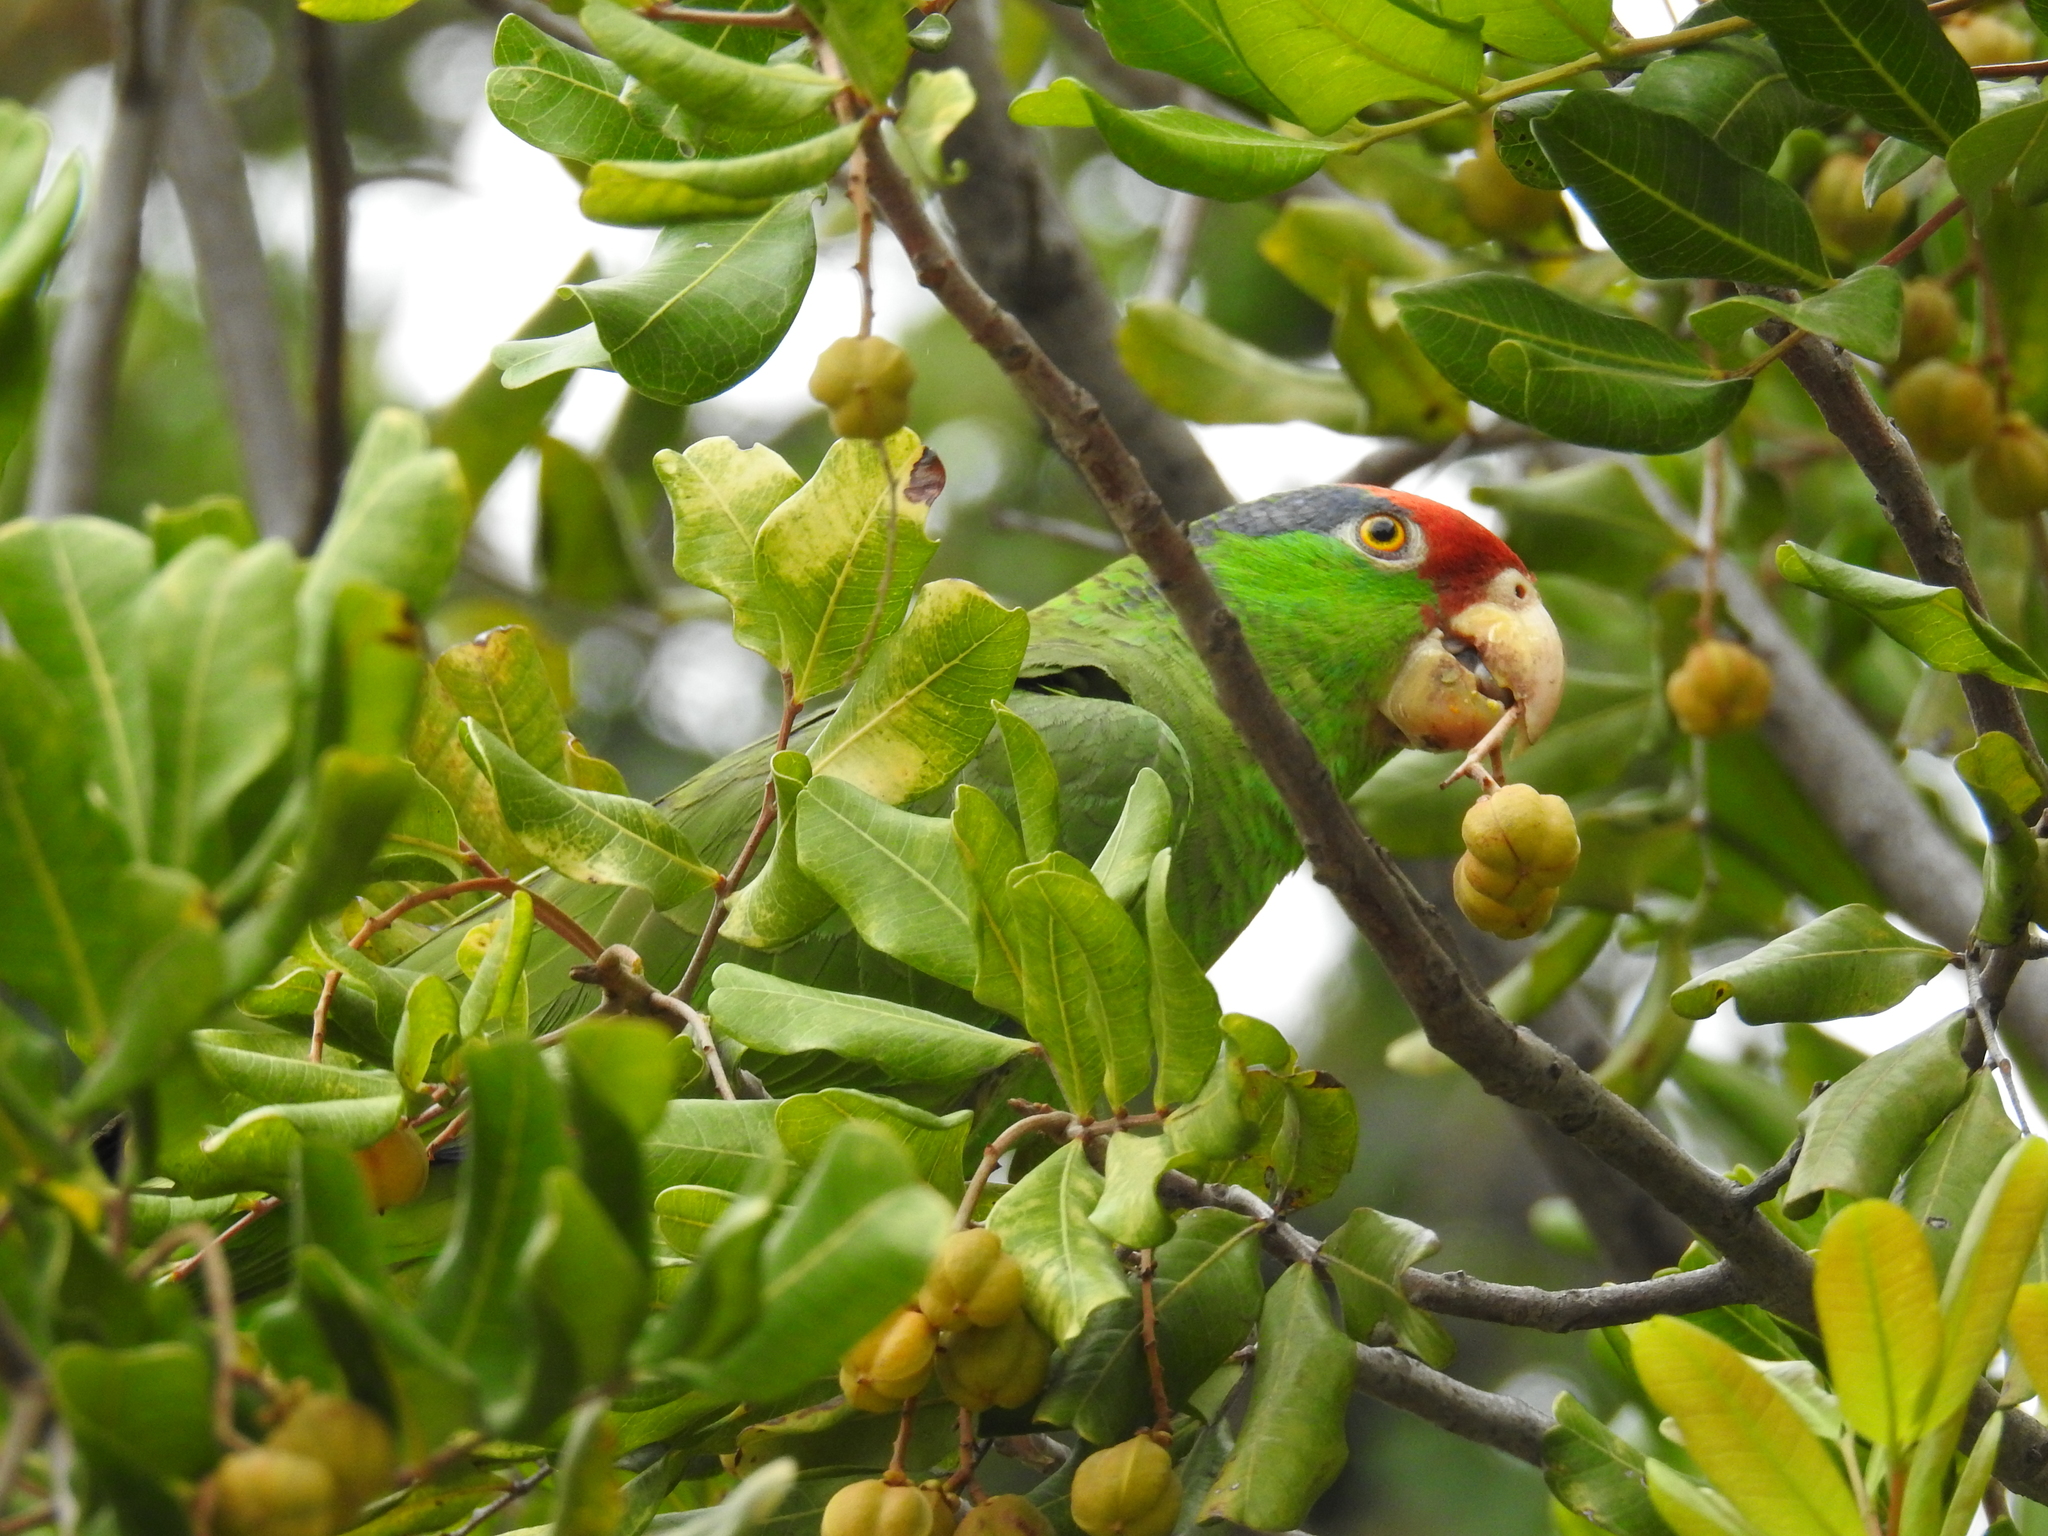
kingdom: Animalia
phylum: Chordata
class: Aves
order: Psittaciformes
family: Psittacidae
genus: Amazona
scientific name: Amazona viridigenalis
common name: Red-crowned amazon
